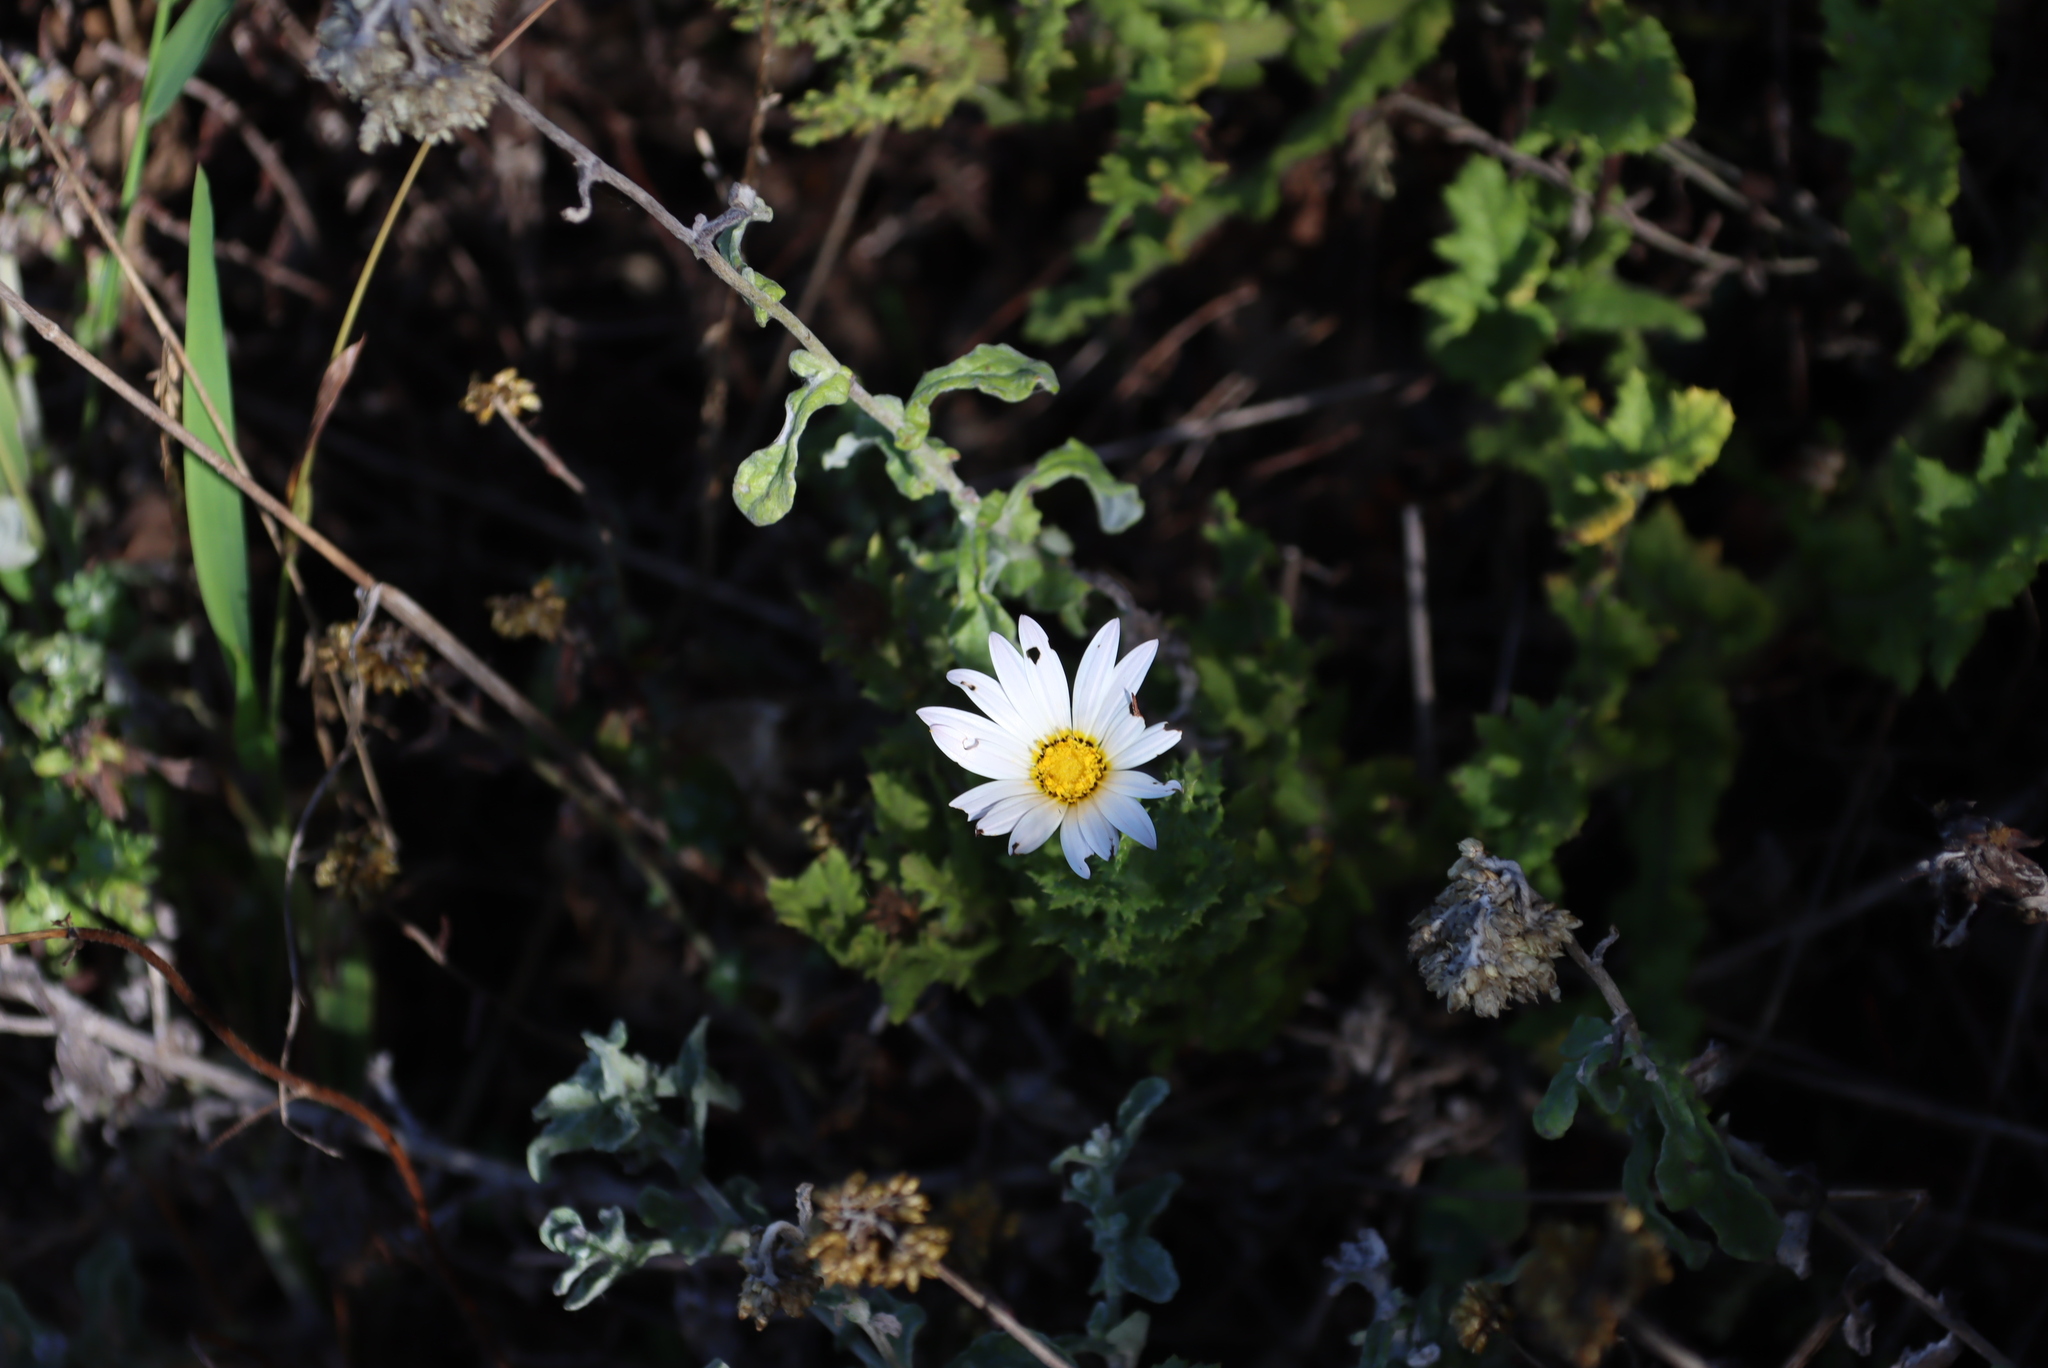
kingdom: Plantae
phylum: Tracheophyta
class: Magnoliopsida
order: Asterales
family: Asteraceae
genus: Arctotis
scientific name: Arctotis aspera
